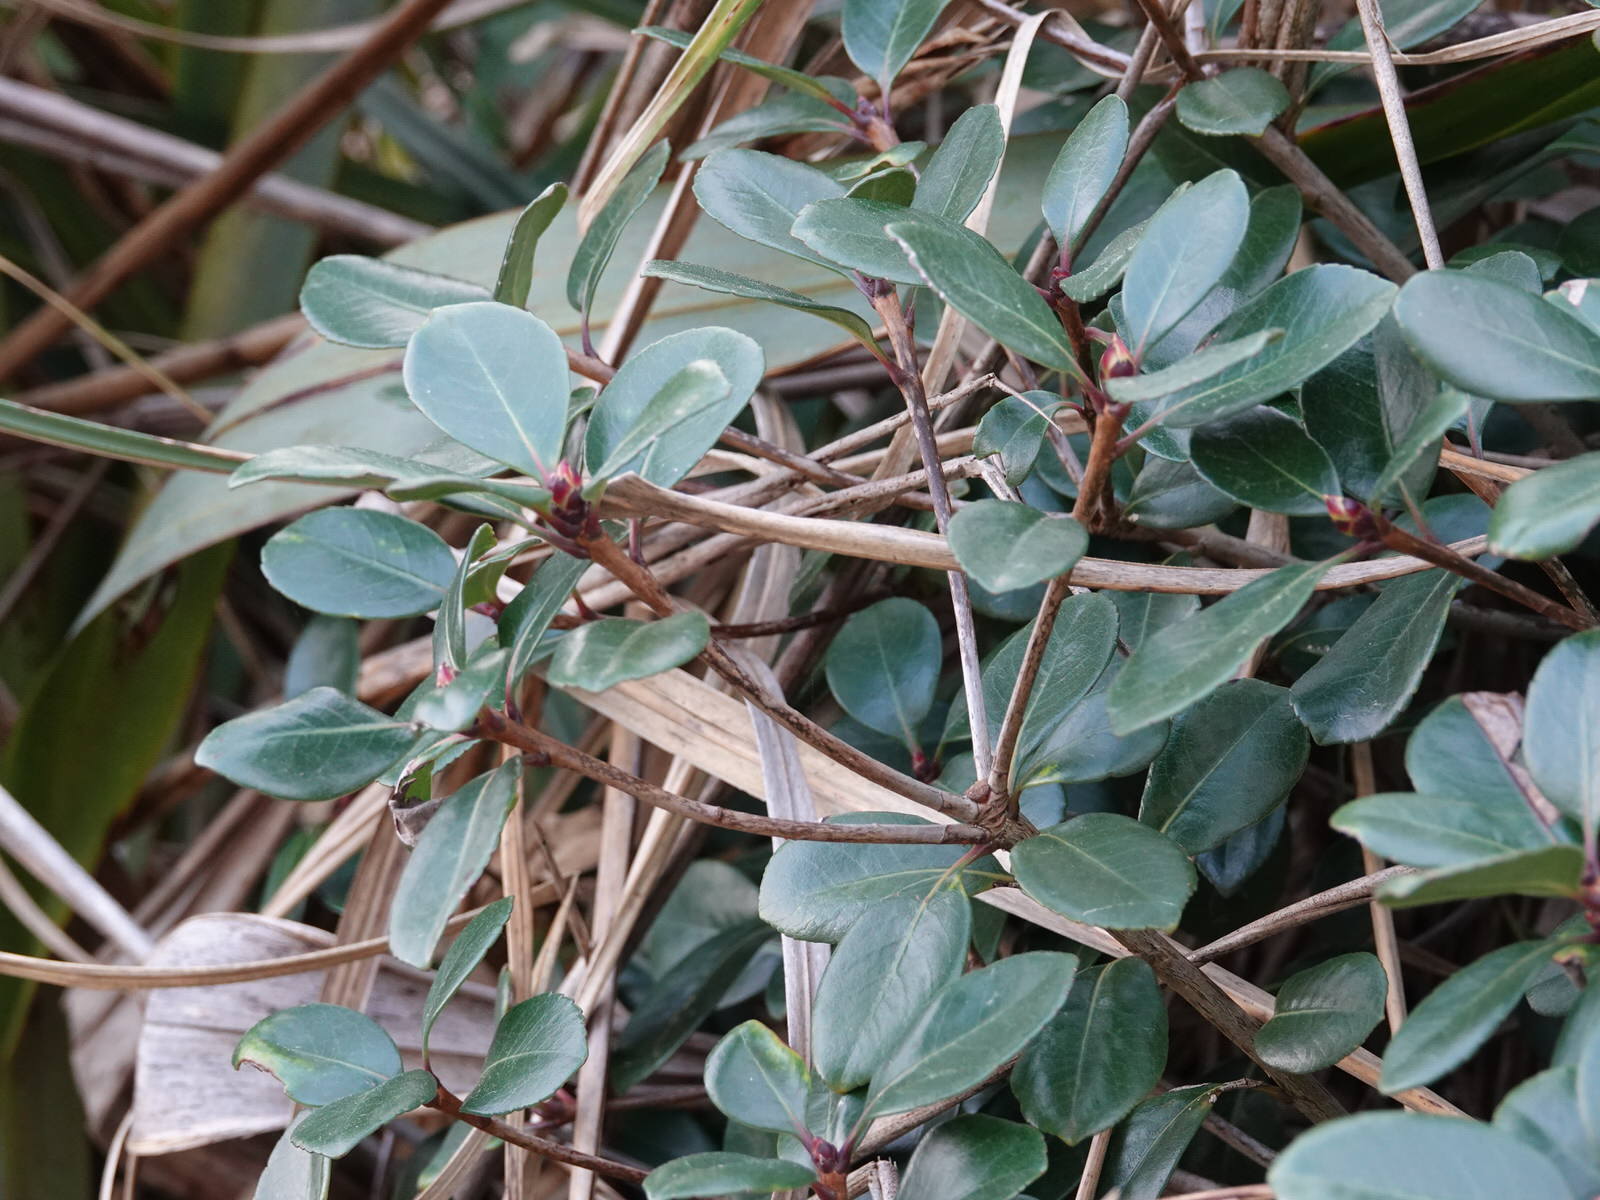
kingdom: Plantae
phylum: Tracheophyta
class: Magnoliopsida
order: Rosales
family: Rosaceae
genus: Rhaphiolepis
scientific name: Rhaphiolepis indica
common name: India-hawthorn
